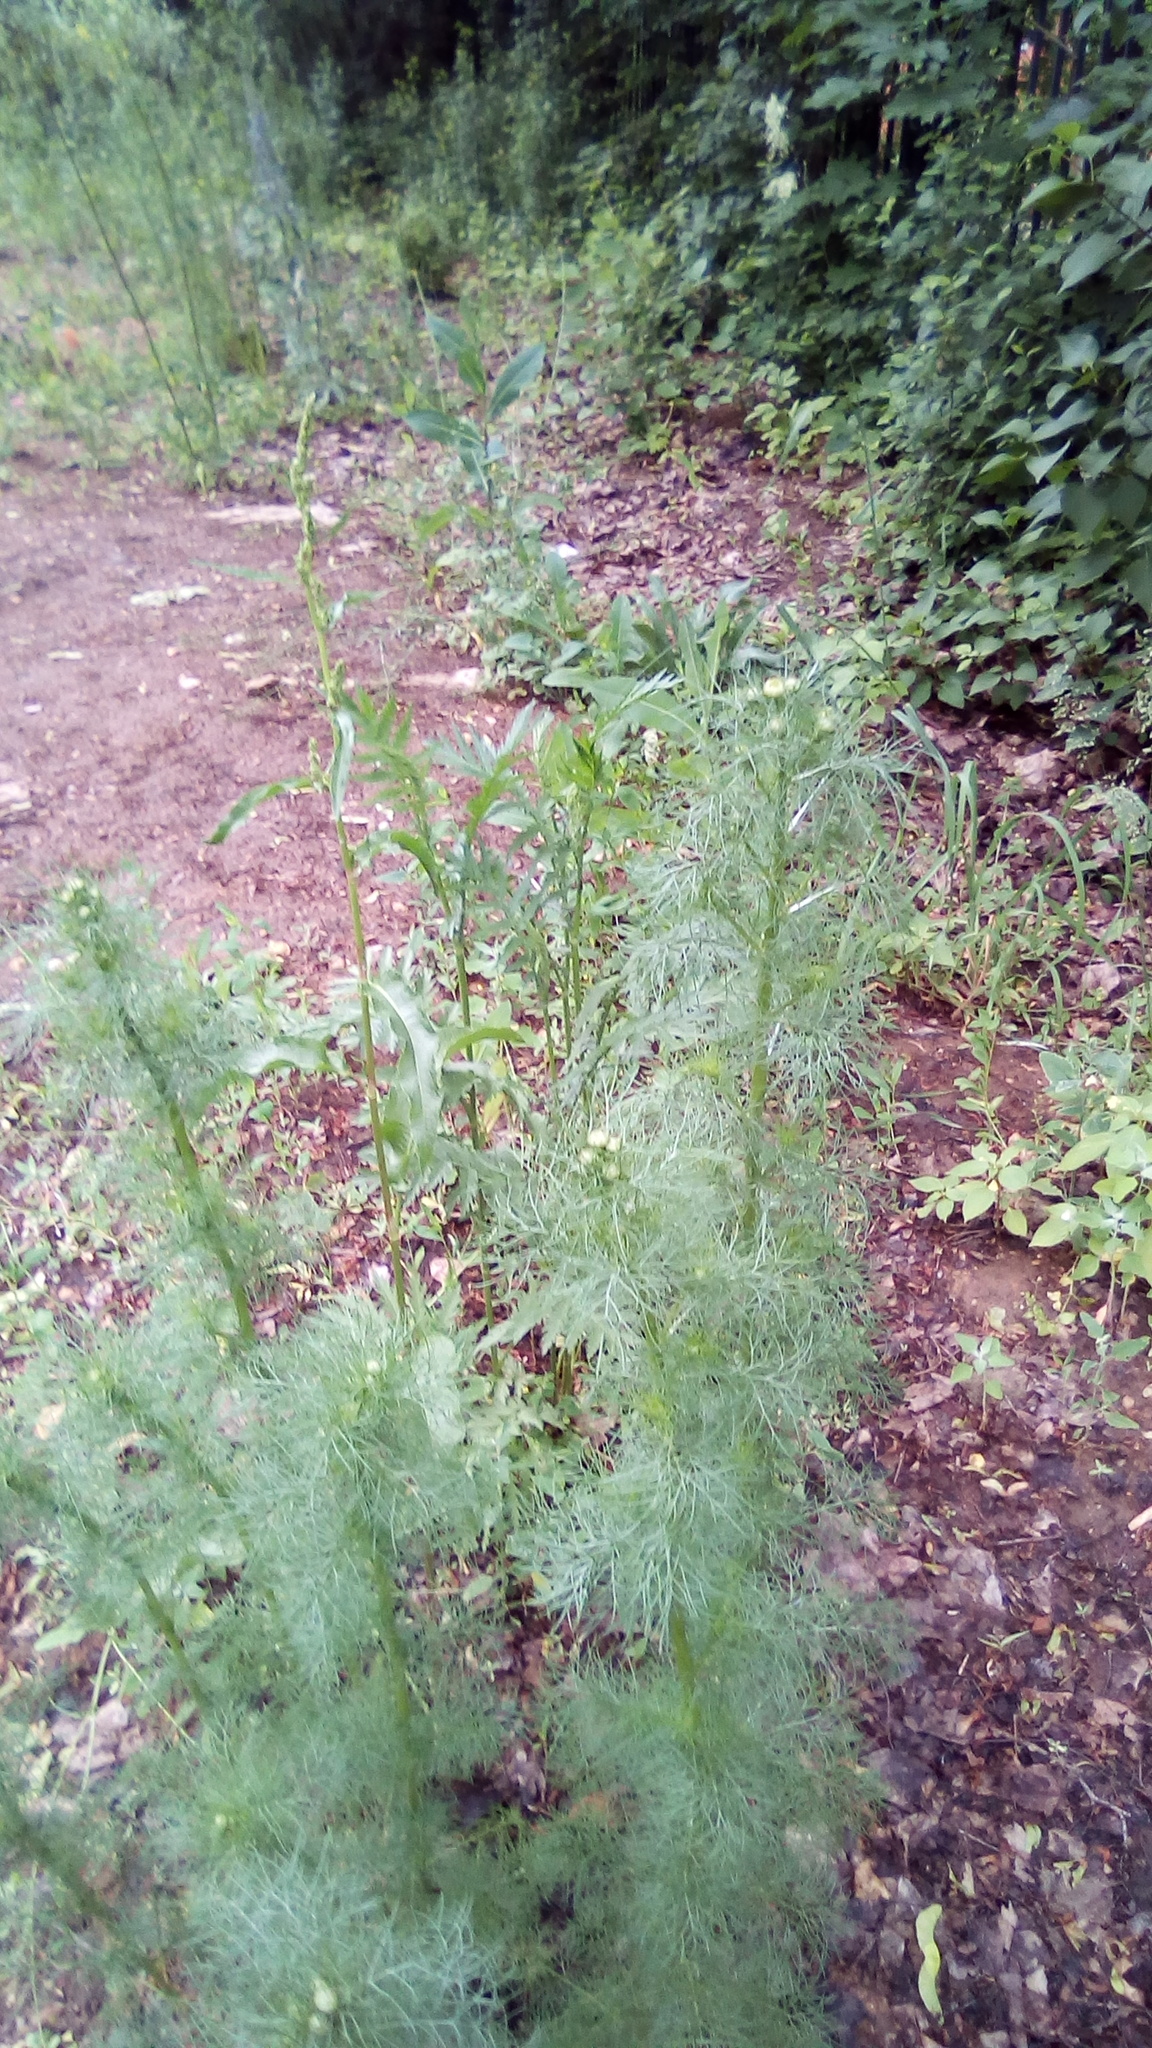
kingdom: Plantae
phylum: Tracheophyta
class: Magnoliopsida
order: Asterales
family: Asteraceae
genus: Tripleurospermum
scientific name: Tripleurospermum inodorum
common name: Scentless mayweed
